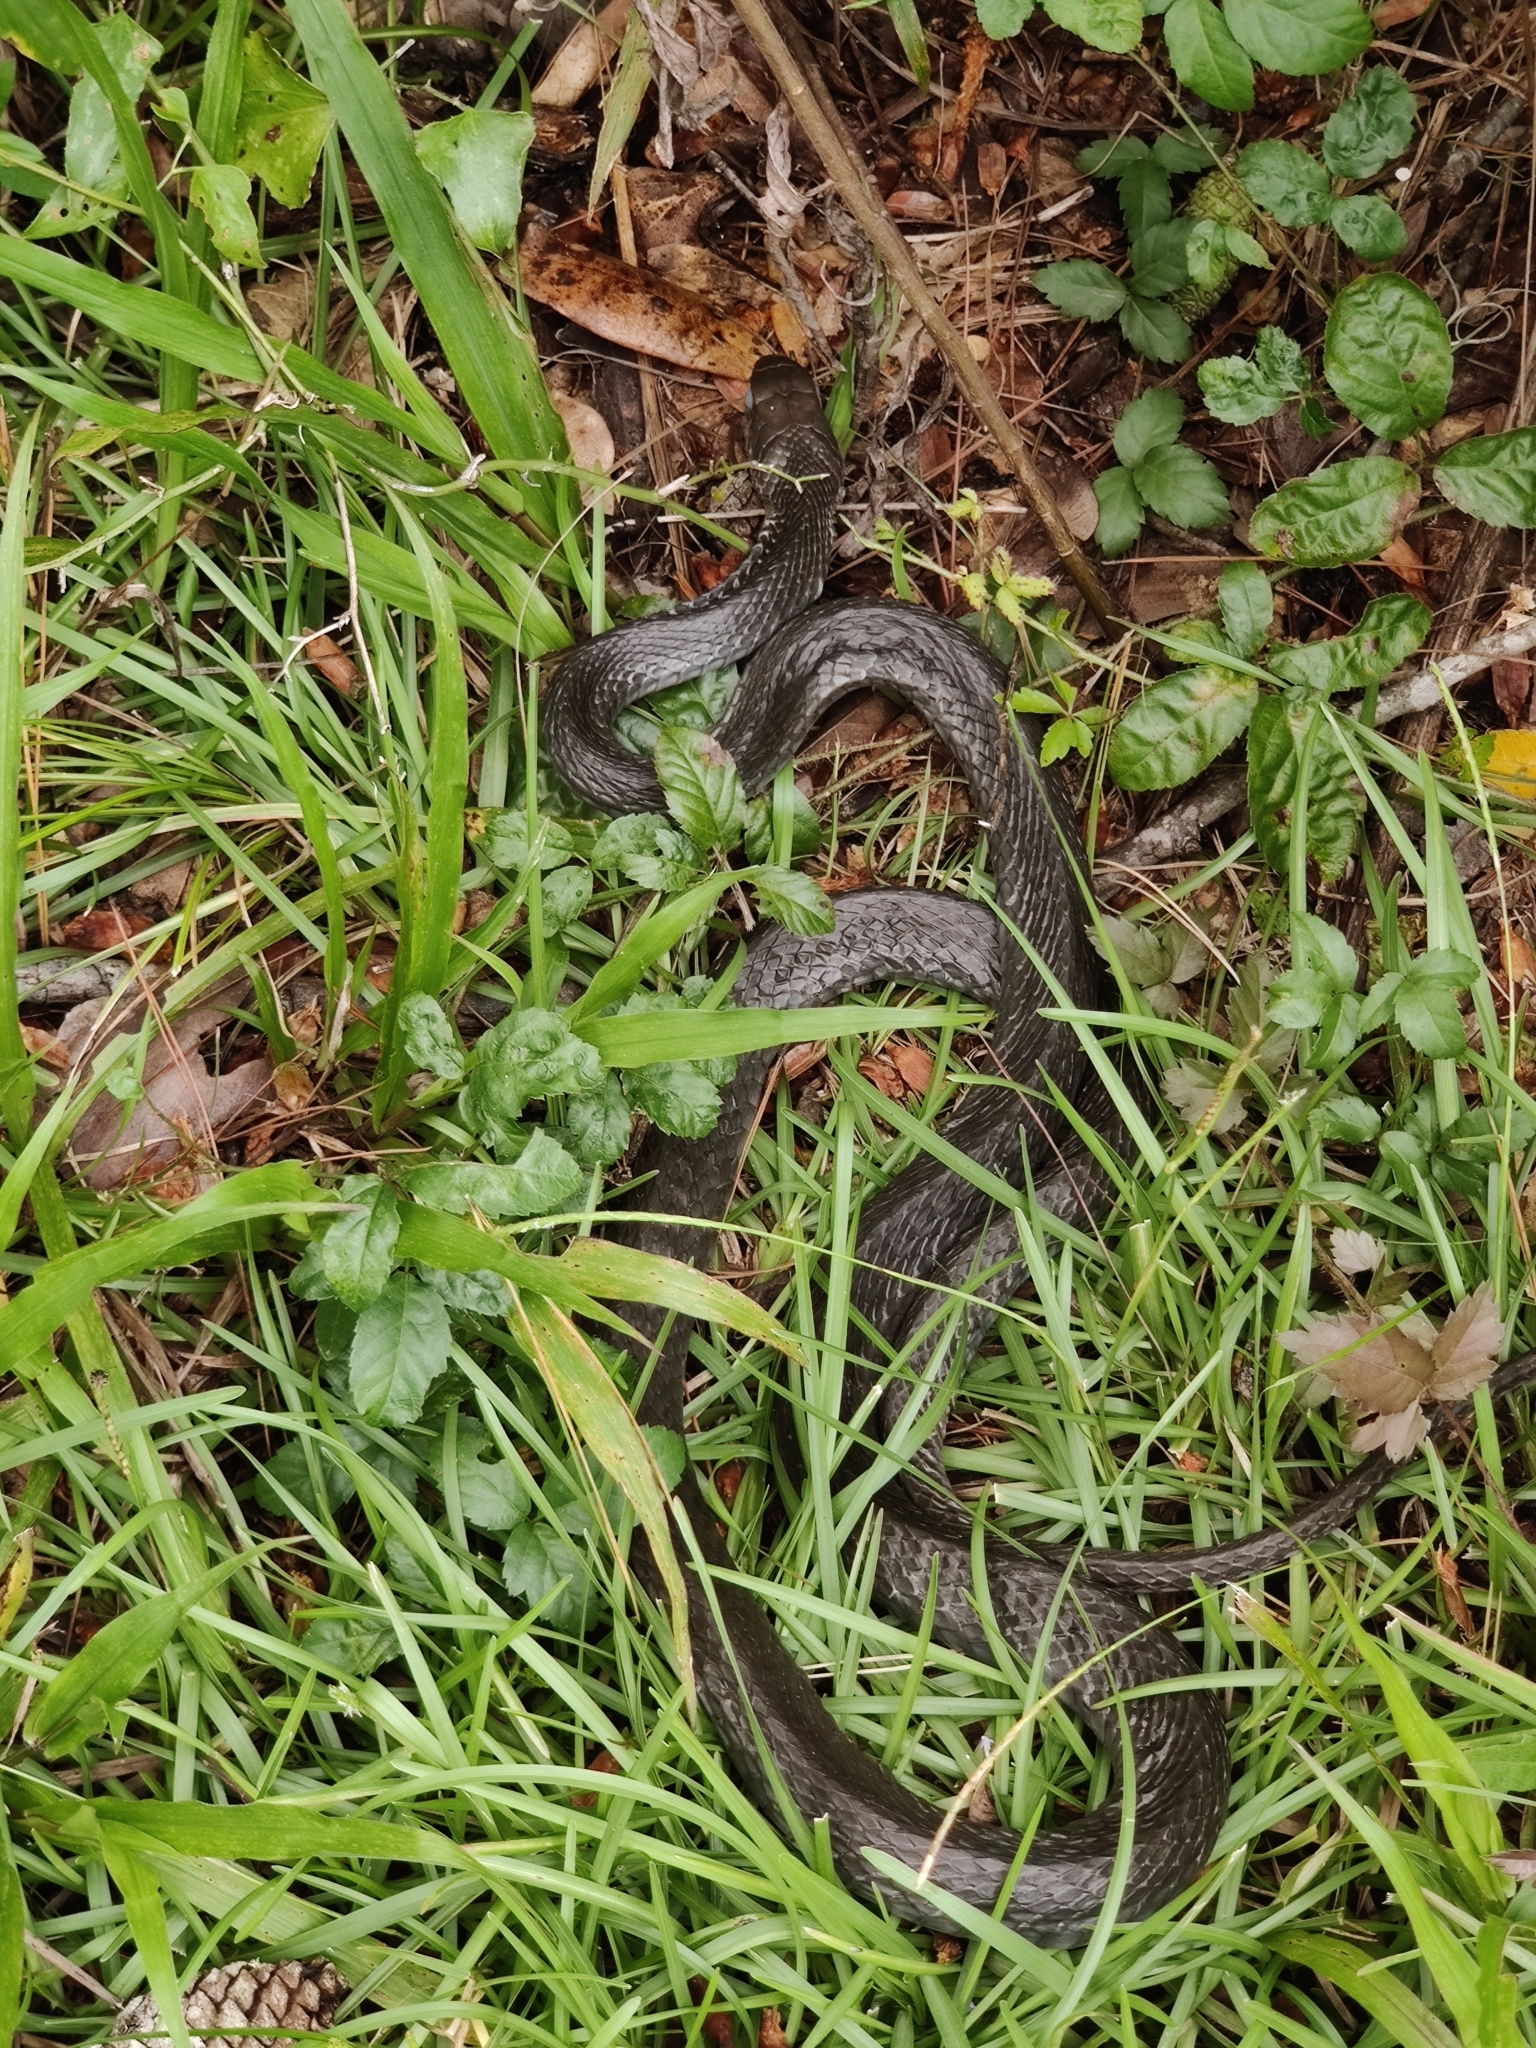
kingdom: Animalia
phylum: Chordata
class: Squamata
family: Colubridae
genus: Coluber
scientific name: Coluber constrictor
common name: Eastern racer
